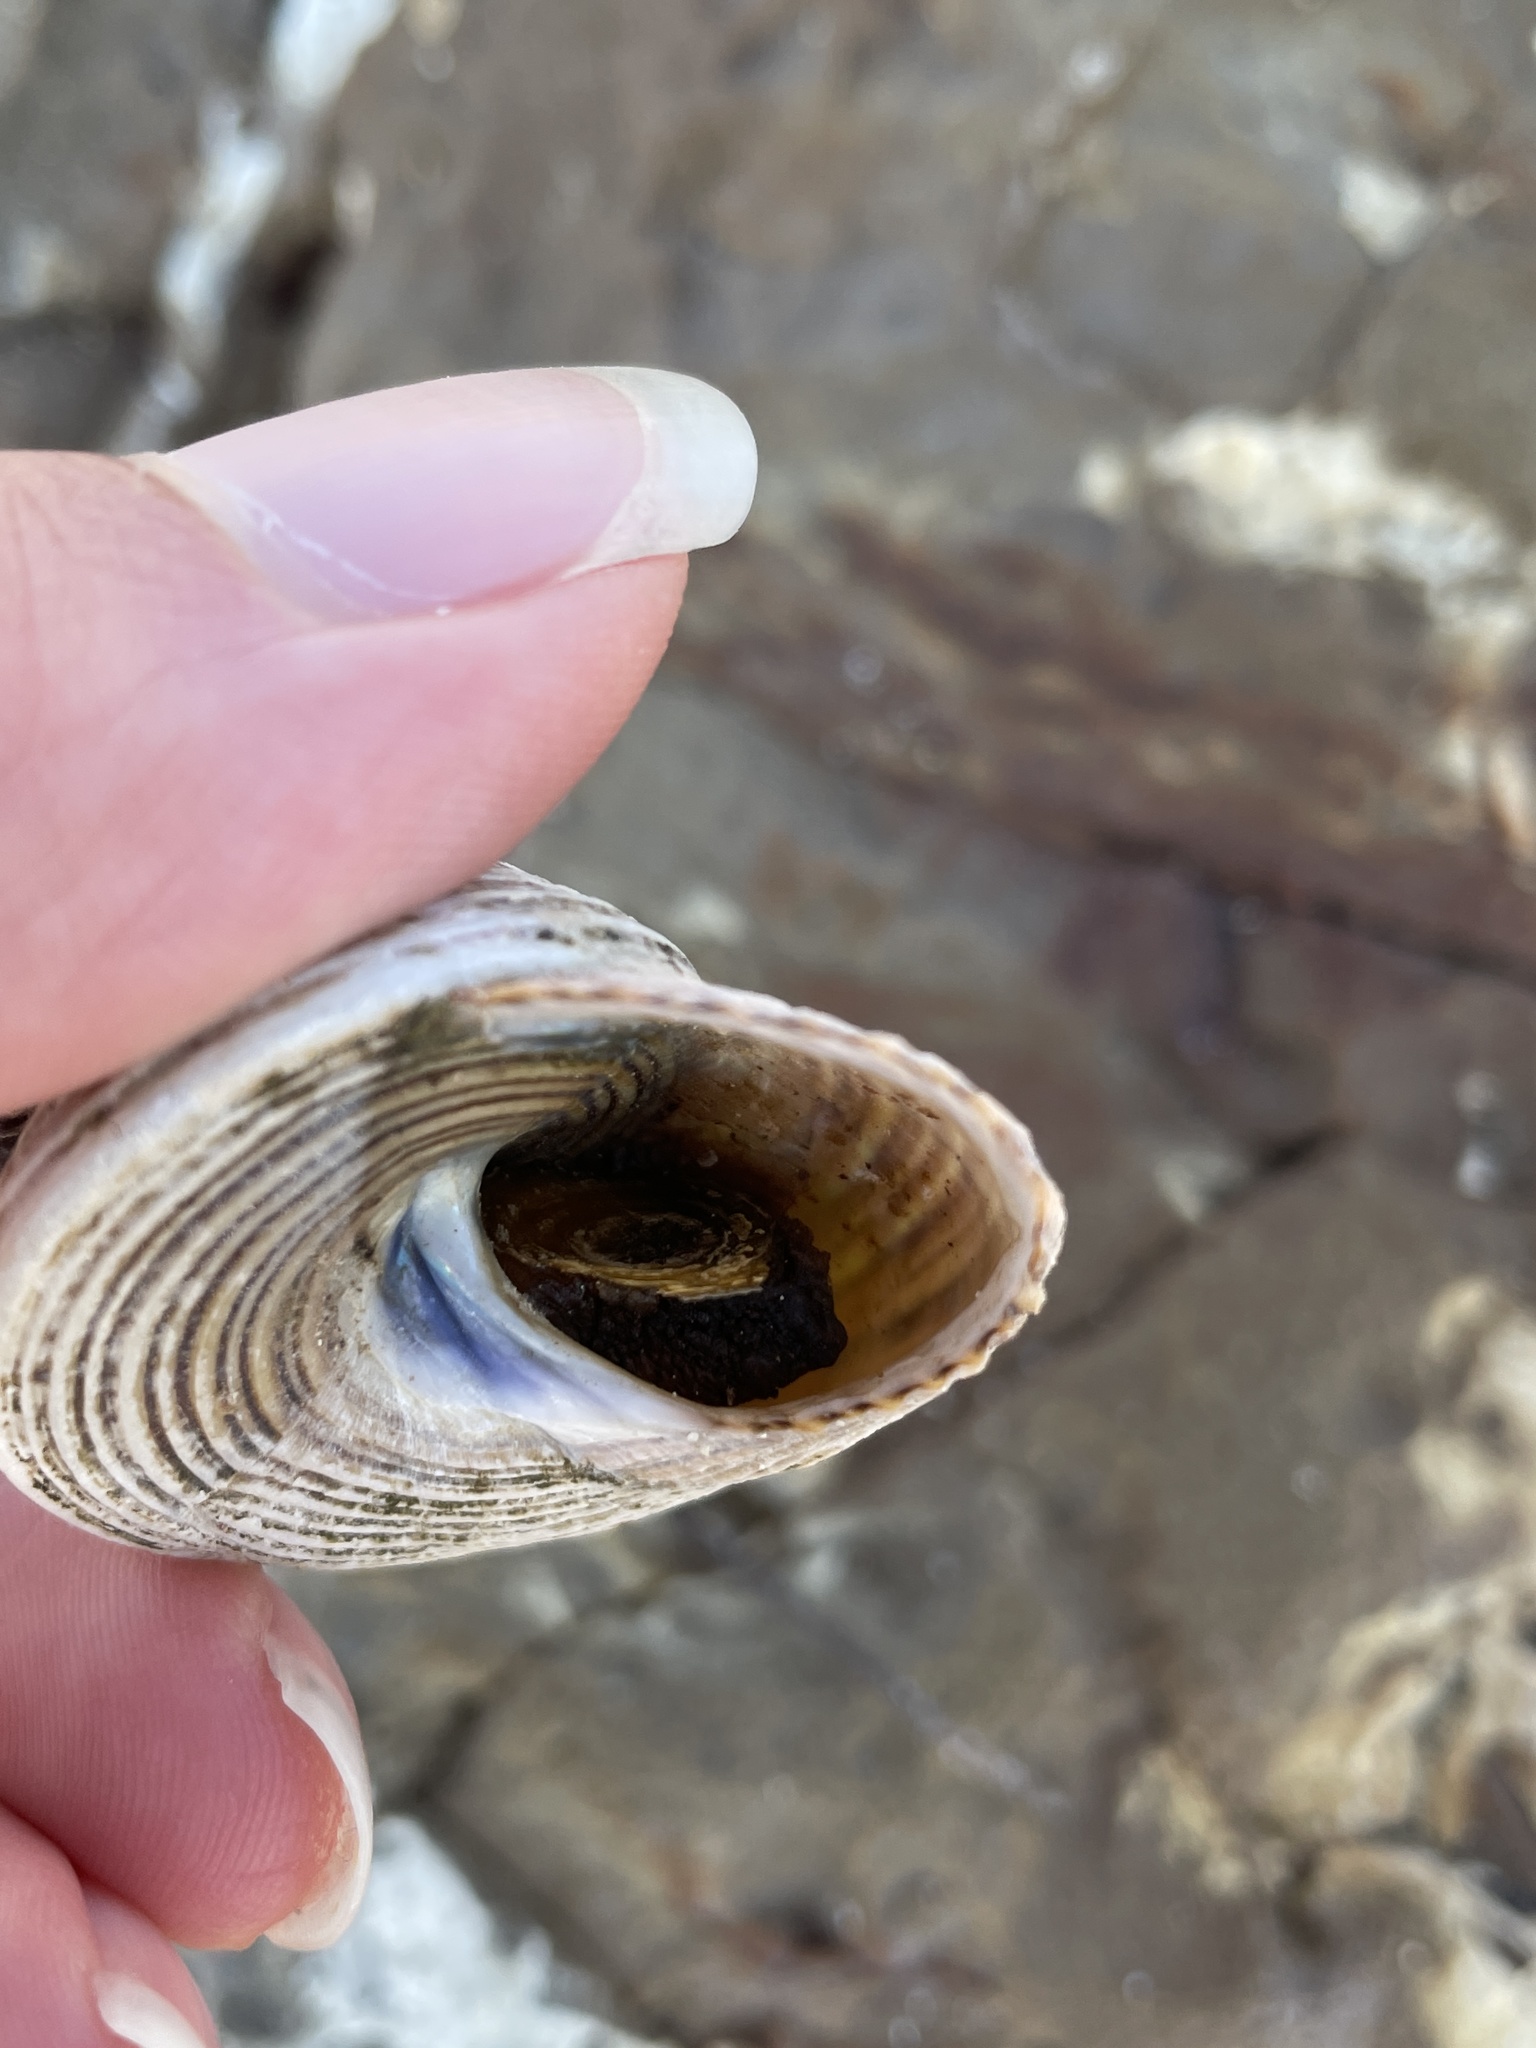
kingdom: Animalia
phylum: Mollusca
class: Gastropoda
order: Trochida
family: Calliostomatidae
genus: Calliostoma
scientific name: Calliostoma canaliculatum
